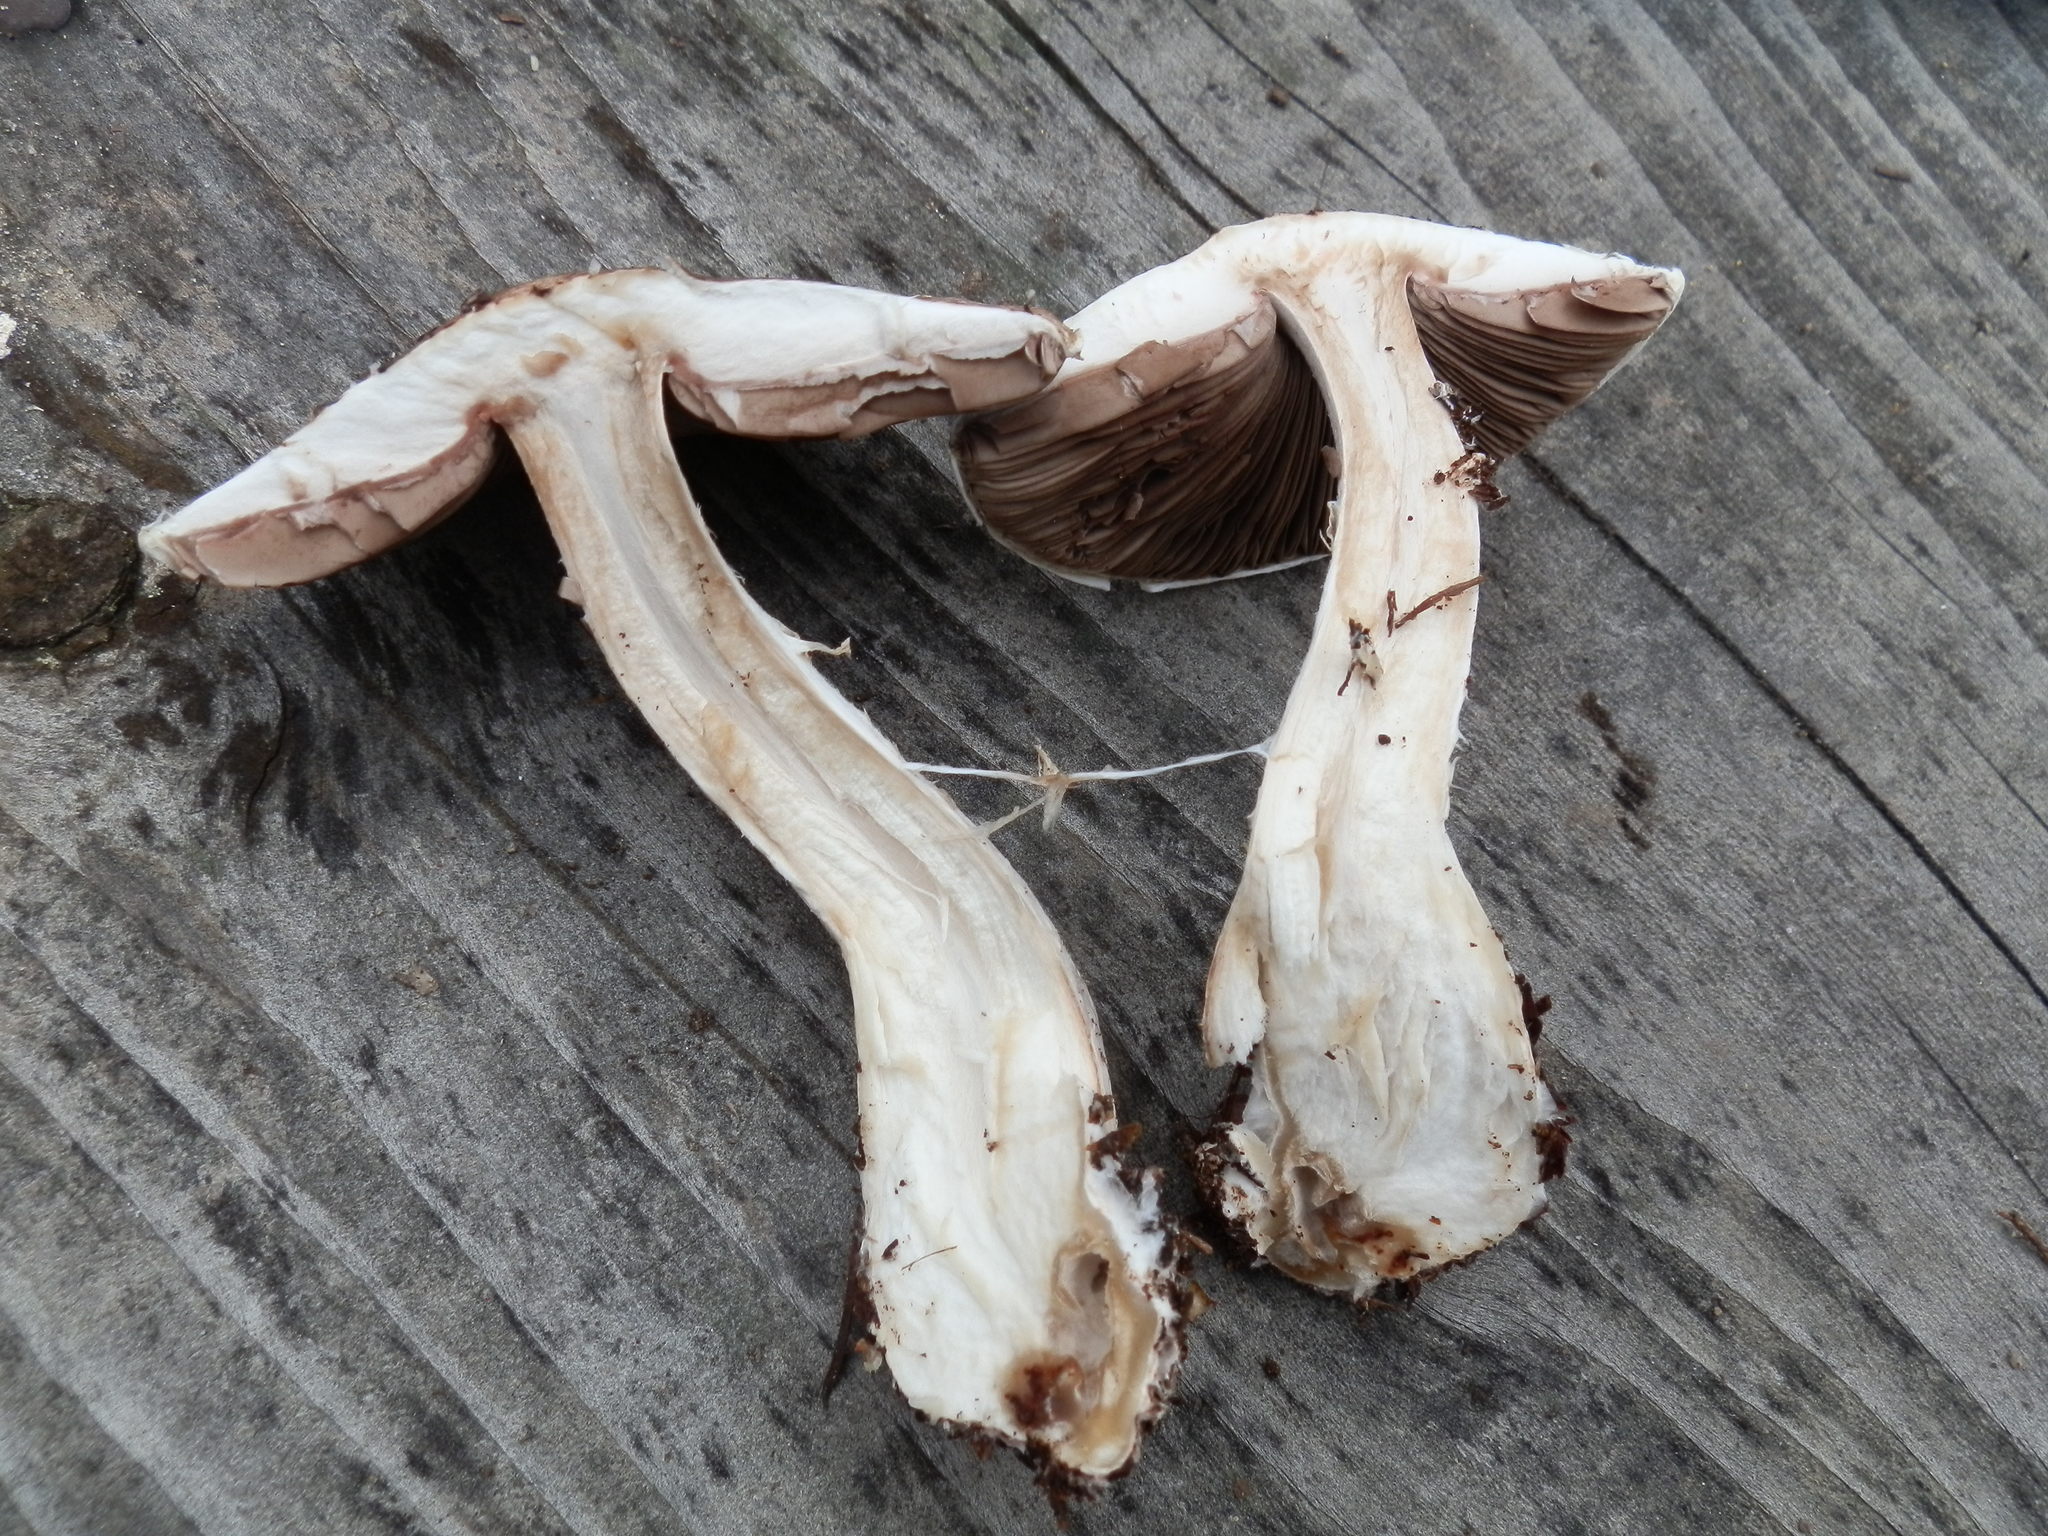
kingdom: Fungi
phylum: Basidiomycota
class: Agaricomycetes
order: Agaricales
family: Agaricaceae
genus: Agaricus
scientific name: Agaricus subrutilescens
